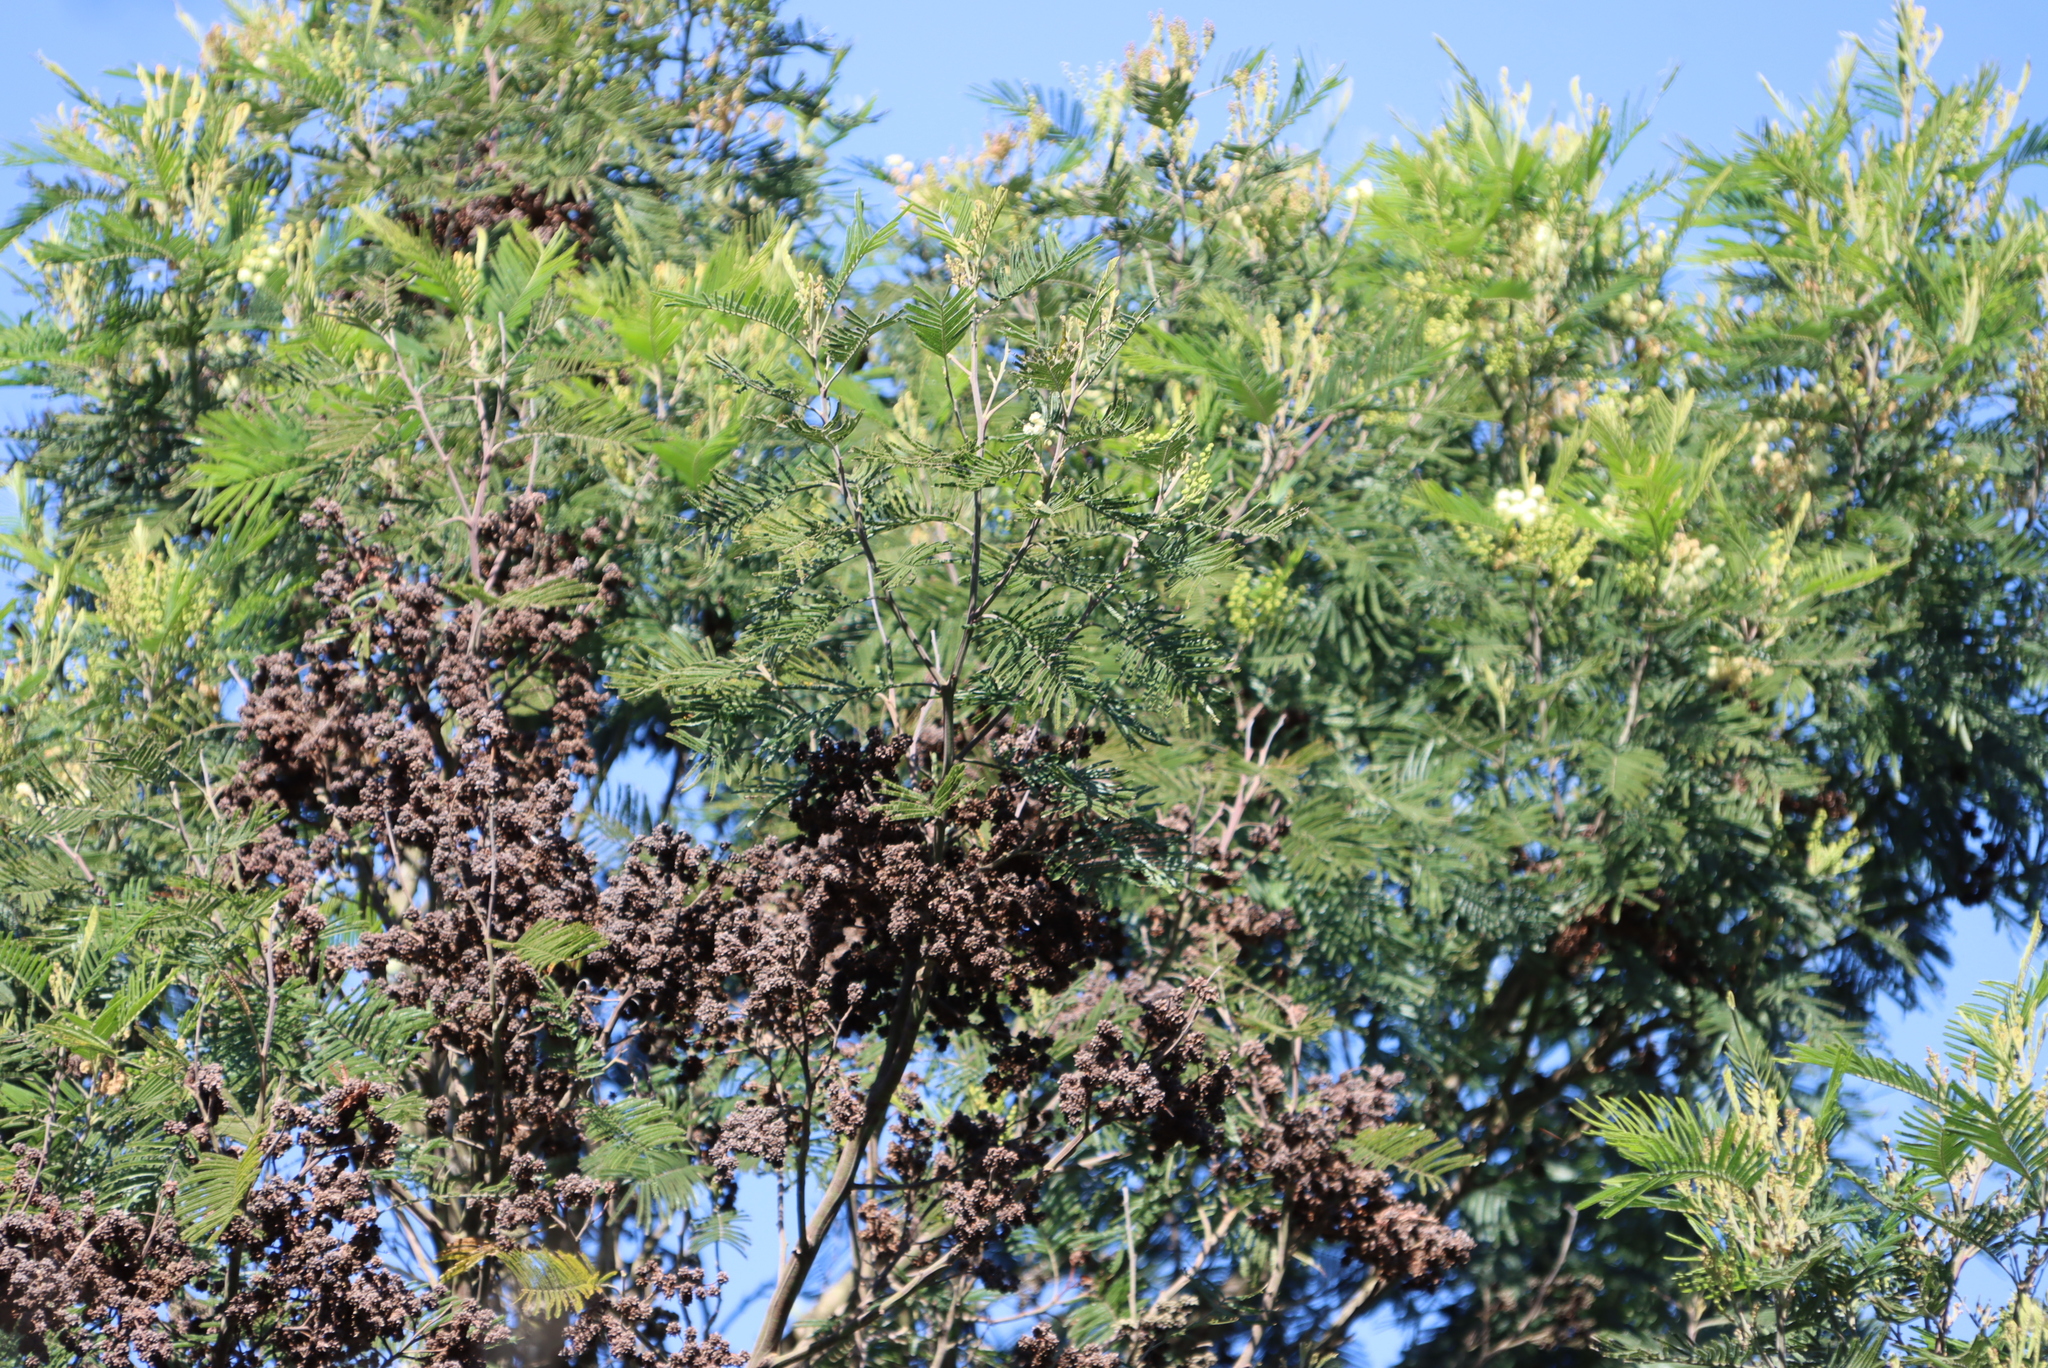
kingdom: Animalia
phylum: Arthropoda
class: Insecta
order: Diptera
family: Cecidomyiidae
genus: Dasineura
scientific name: Dasineura rubiformis
